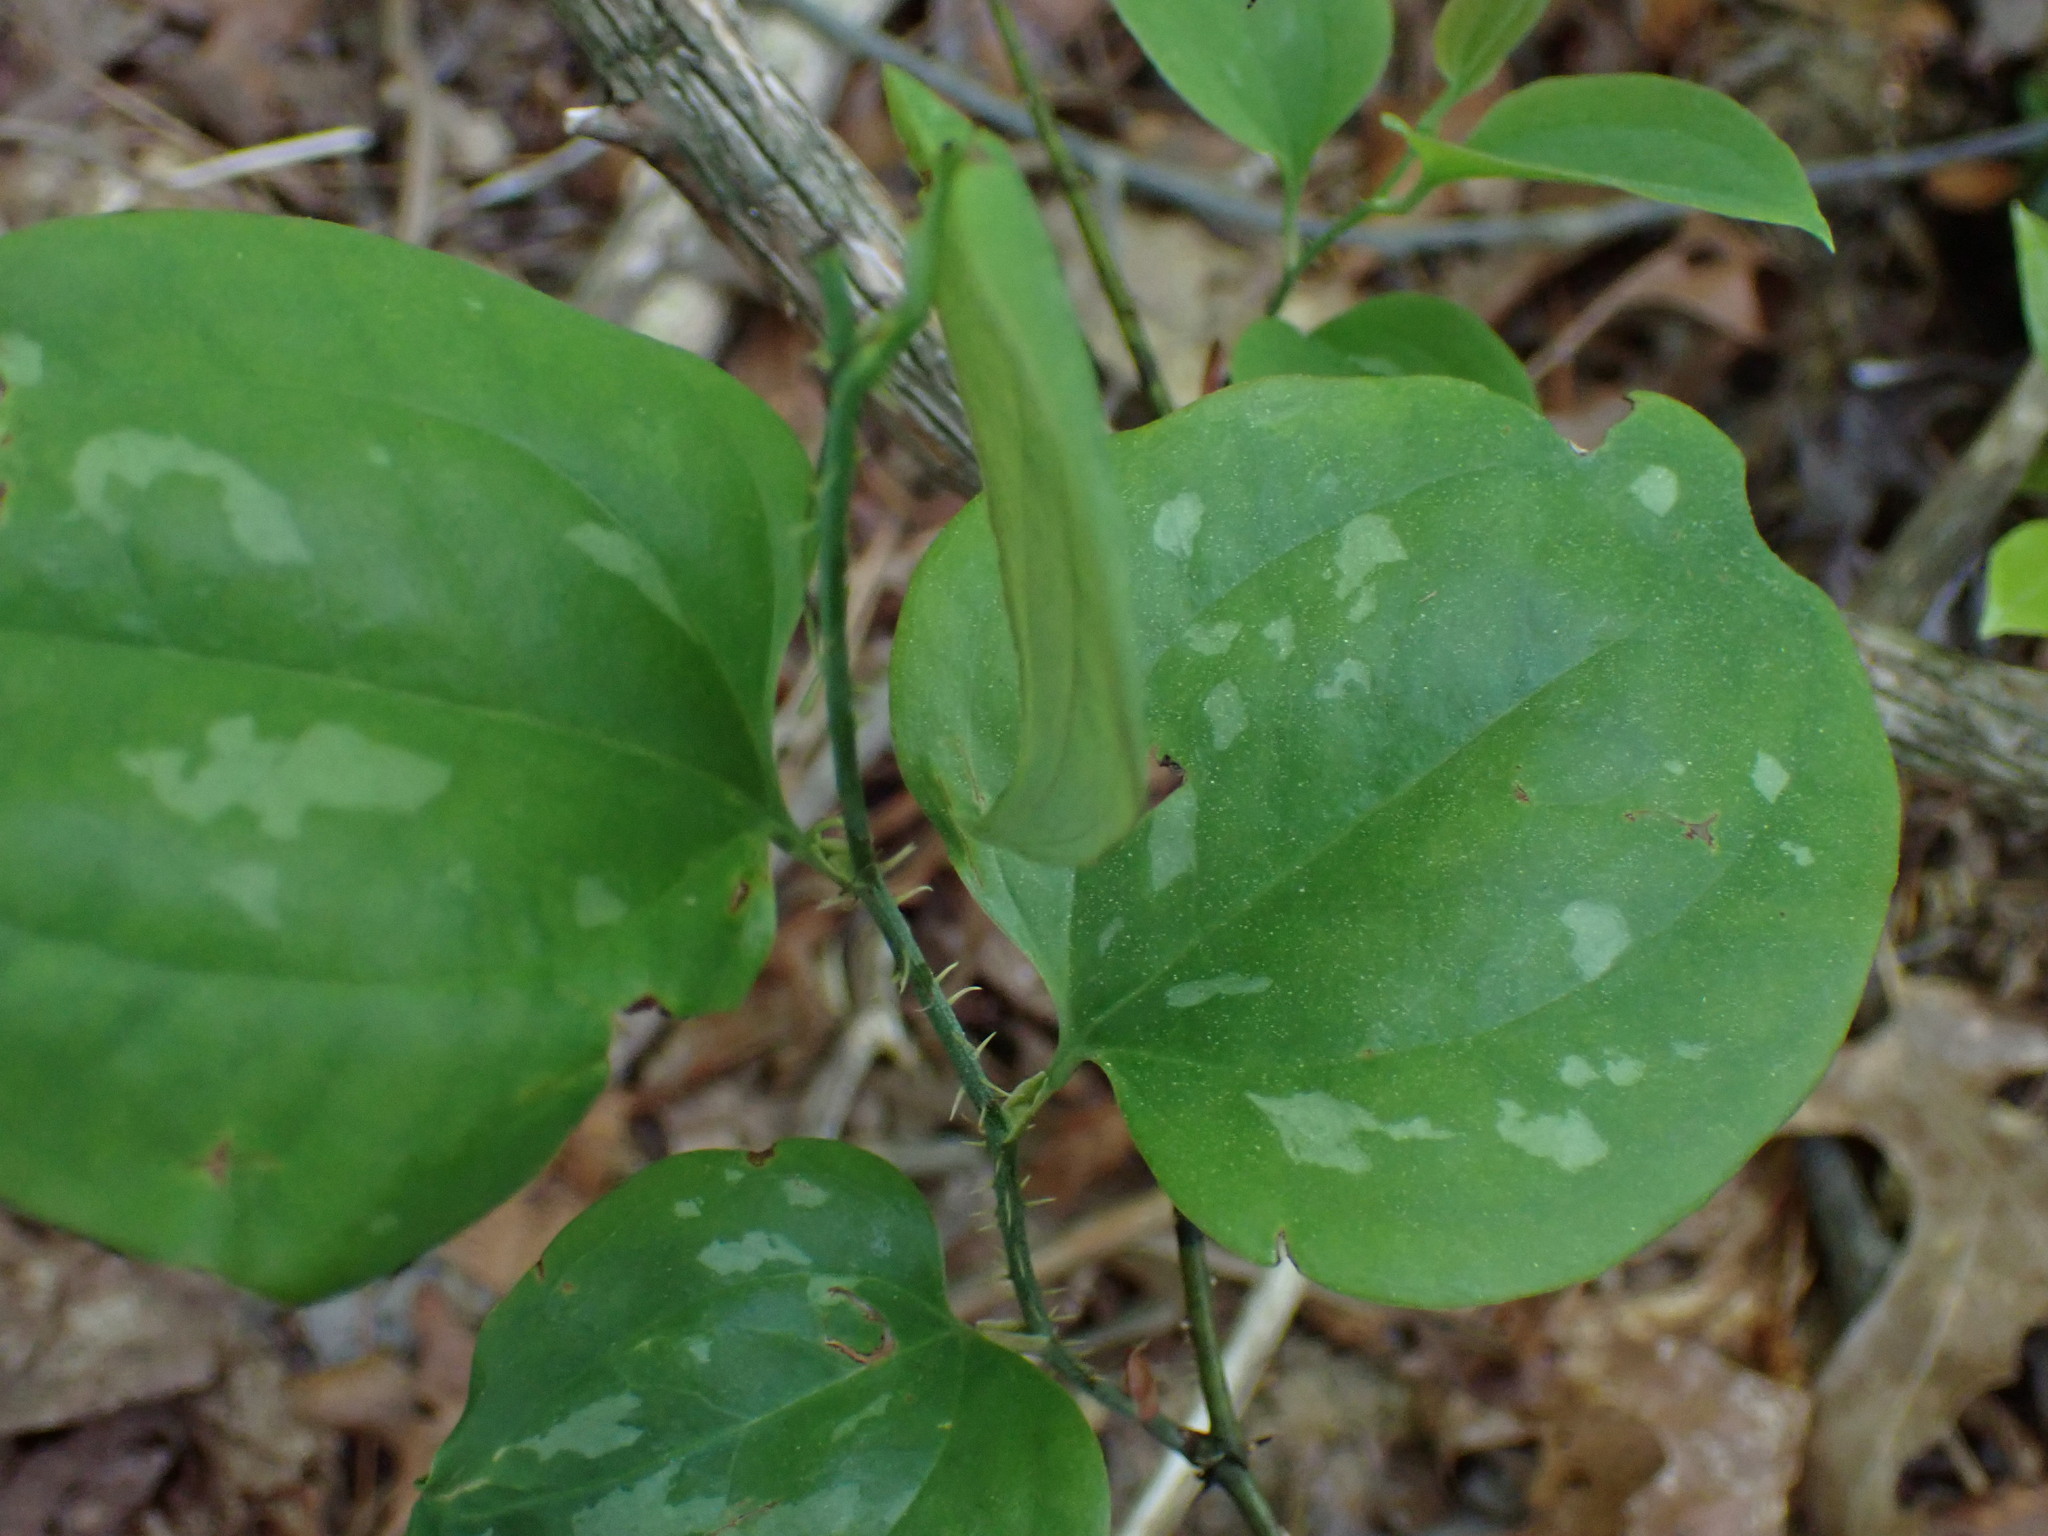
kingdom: Plantae
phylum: Tracheophyta
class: Liliopsida
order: Liliales
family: Smilacaceae
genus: Smilax
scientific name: Smilax glauca
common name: Cat greenbrier
